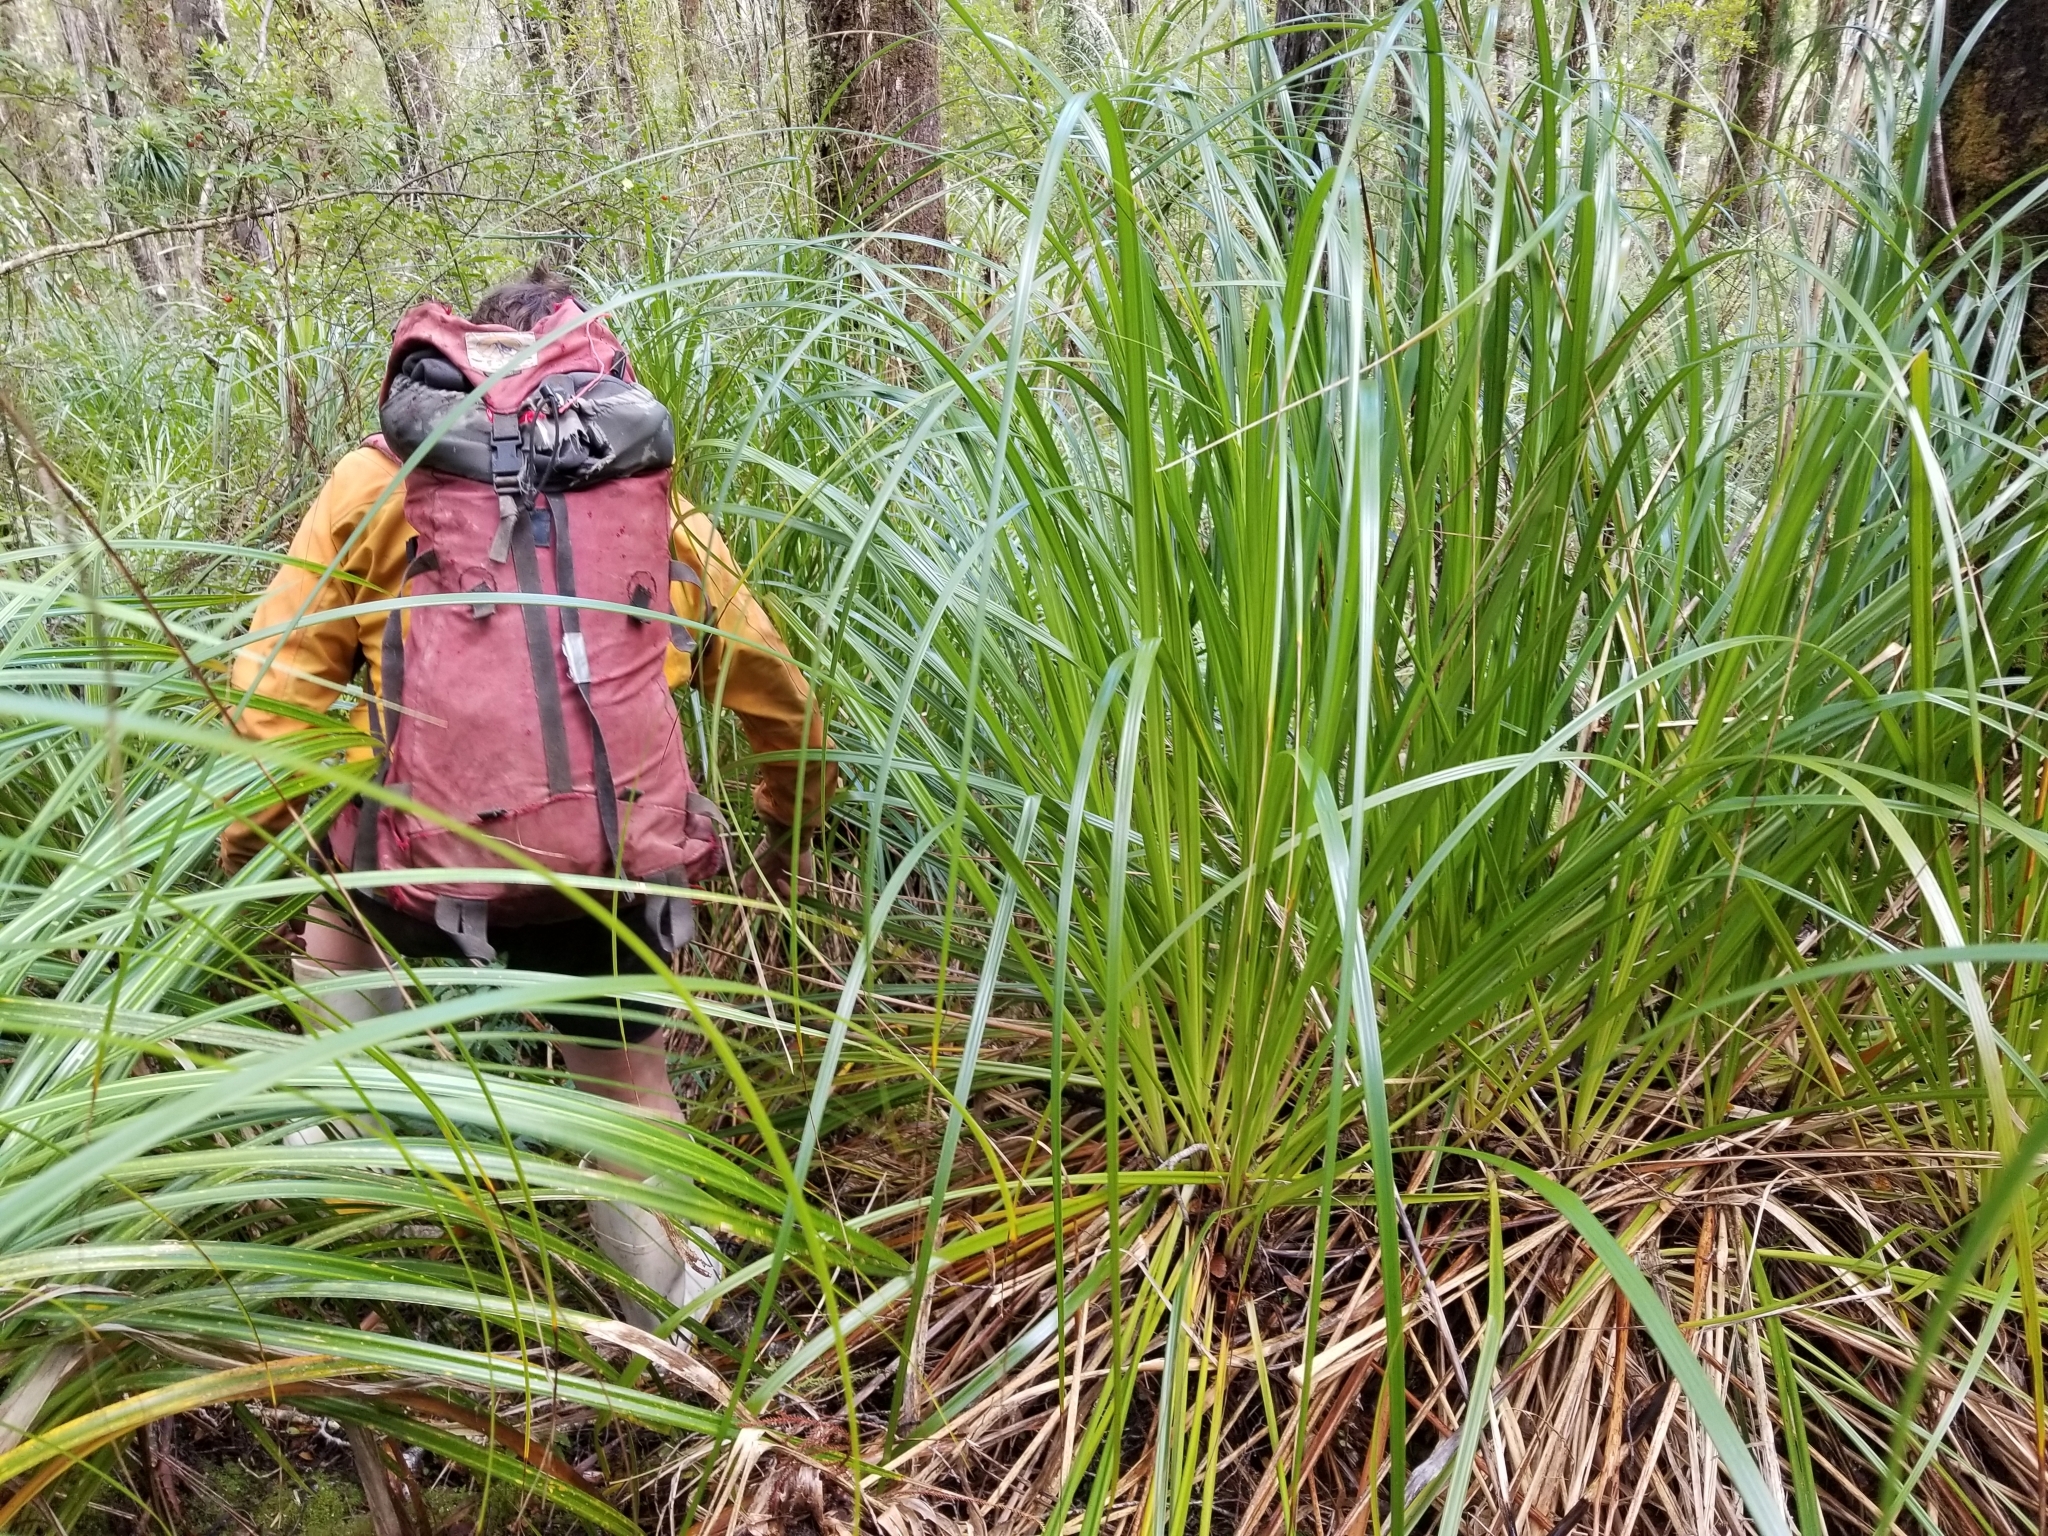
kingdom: Plantae
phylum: Tracheophyta
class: Liliopsida
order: Poales
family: Cyperaceae
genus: Gahnia
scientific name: Gahnia xanthocarpa
